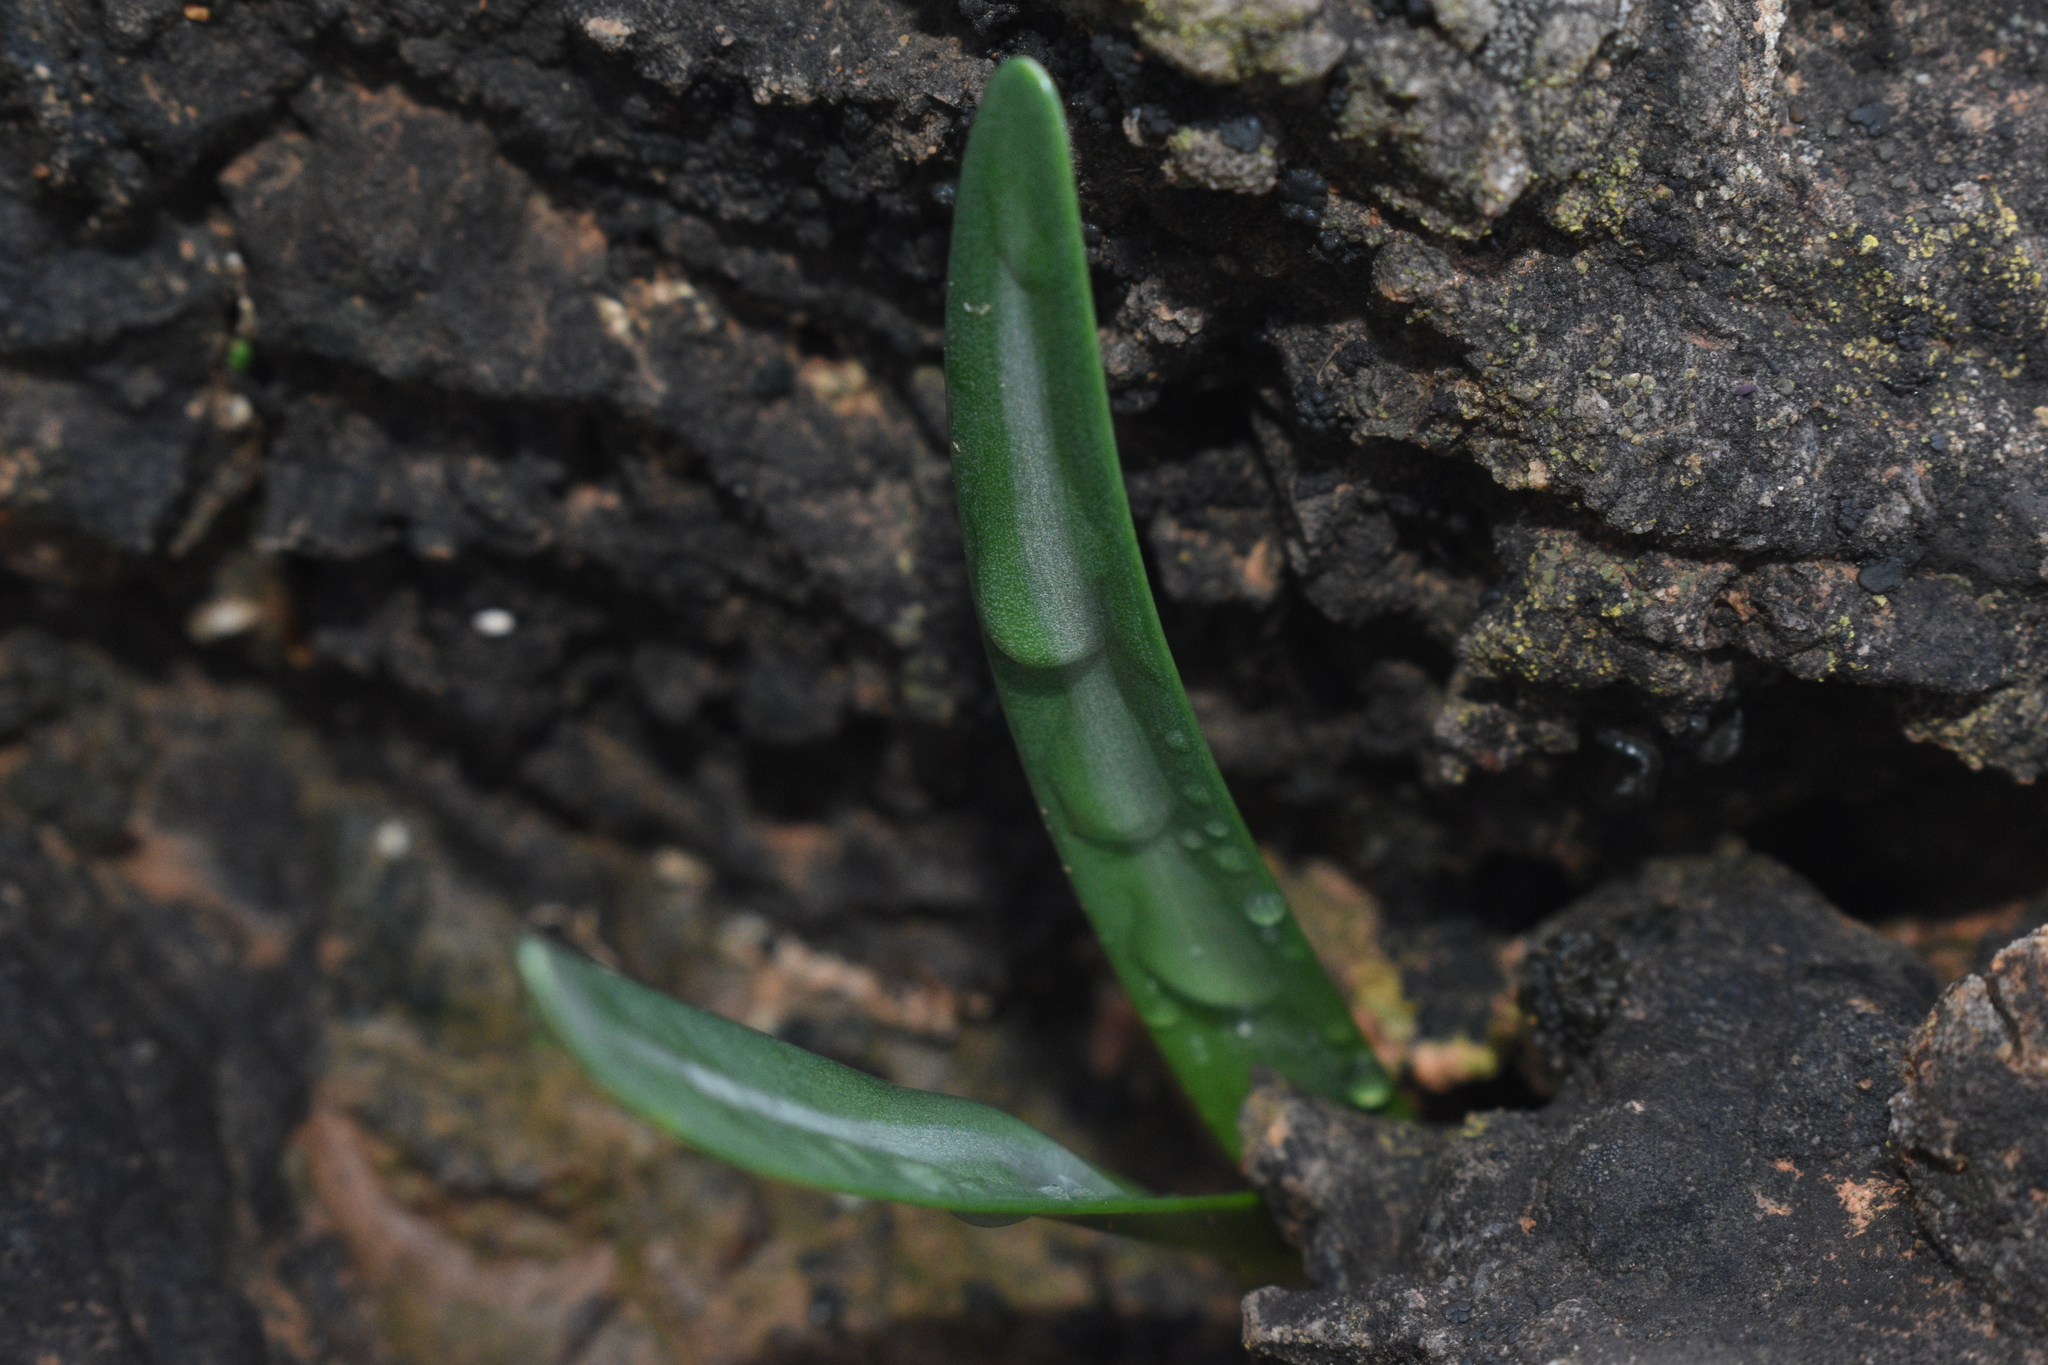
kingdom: Plantae
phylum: Tracheophyta
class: Liliopsida
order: Asparagales
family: Amaryllidaceae
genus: Lapiedra
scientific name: Lapiedra martinezii
